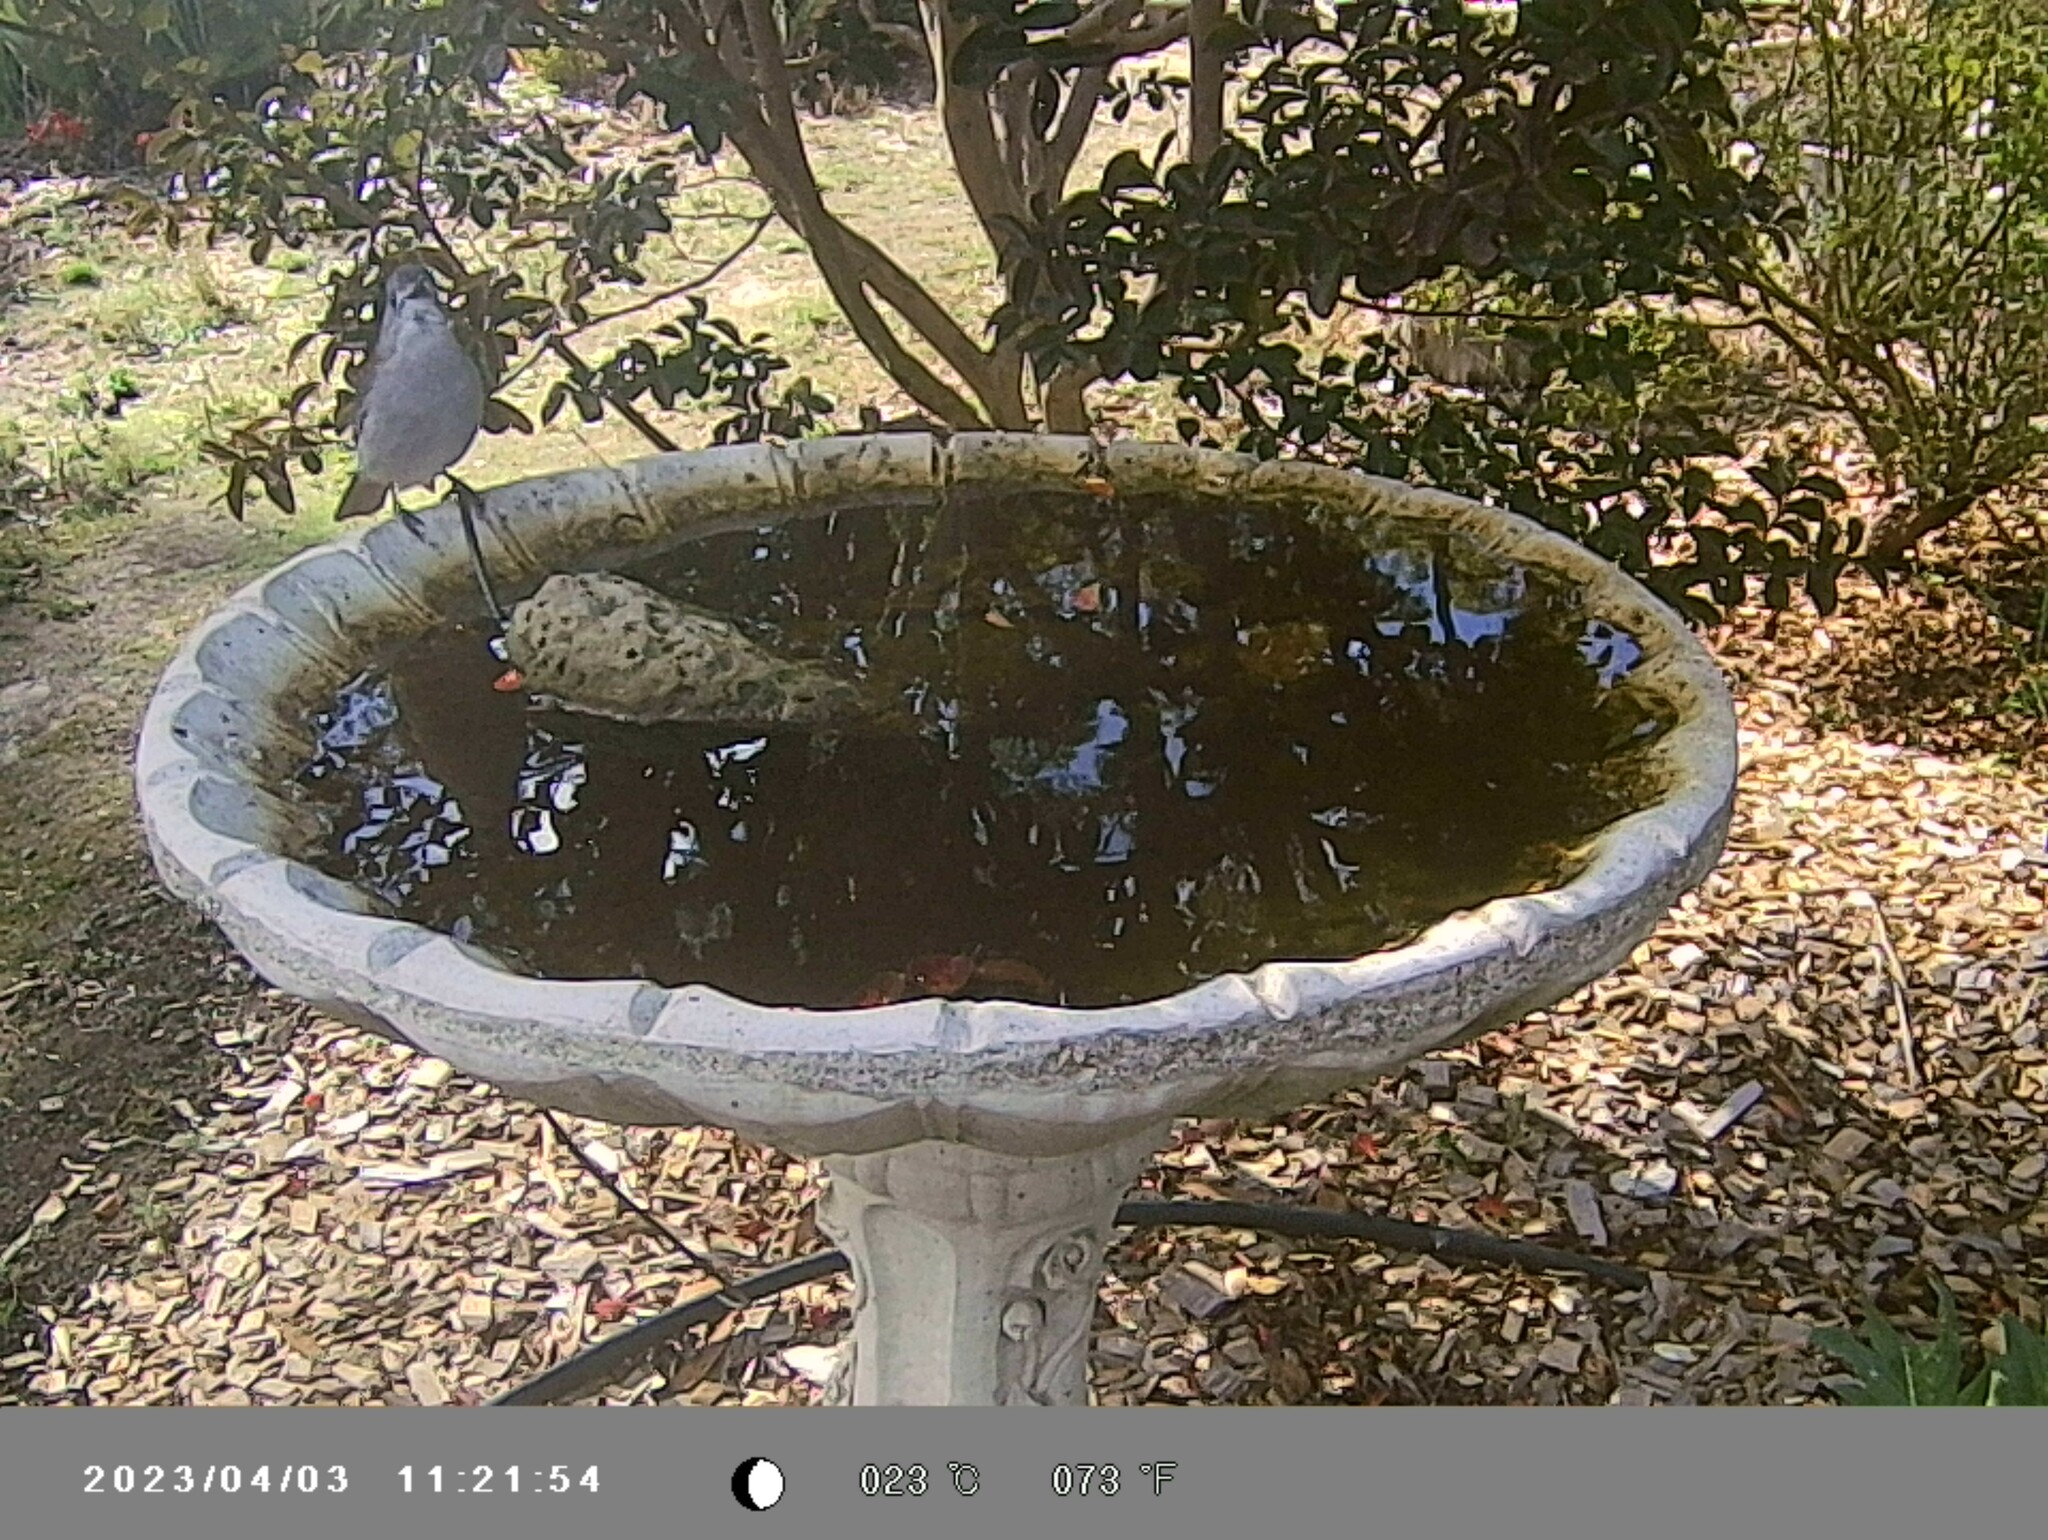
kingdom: Animalia
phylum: Chordata
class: Aves
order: Passeriformes
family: Pachycephalidae
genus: Colluricincla
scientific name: Colluricincla harmonica
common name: Grey shrikethrush
